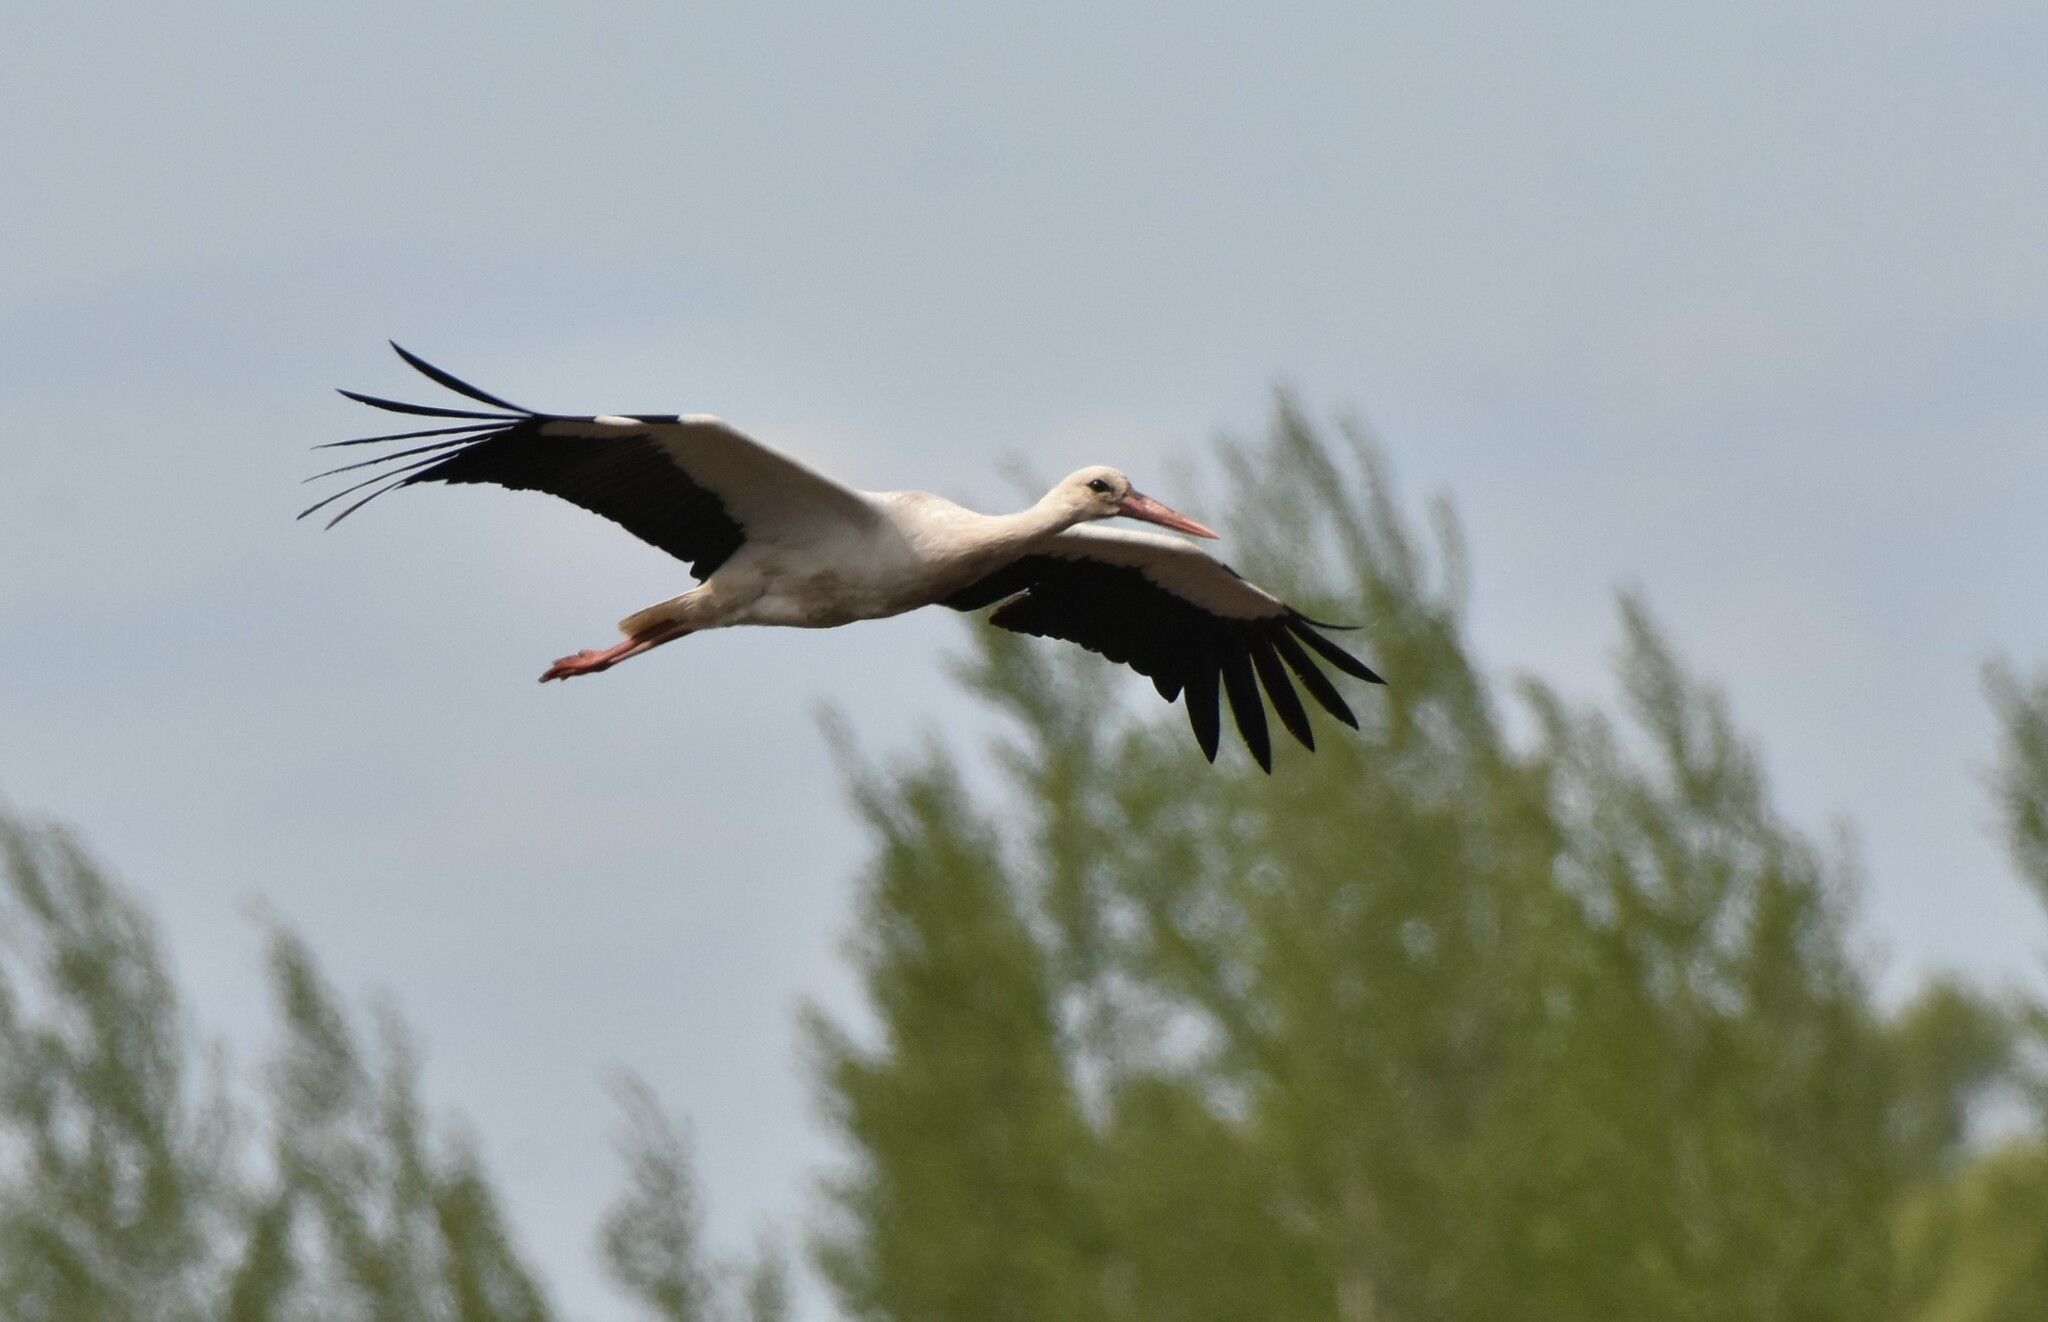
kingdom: Animalia
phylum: Chordata
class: Aves
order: Ciconiiformes
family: Ciconiidae
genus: Ciconia
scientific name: Ciconia ciconia
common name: White stork
